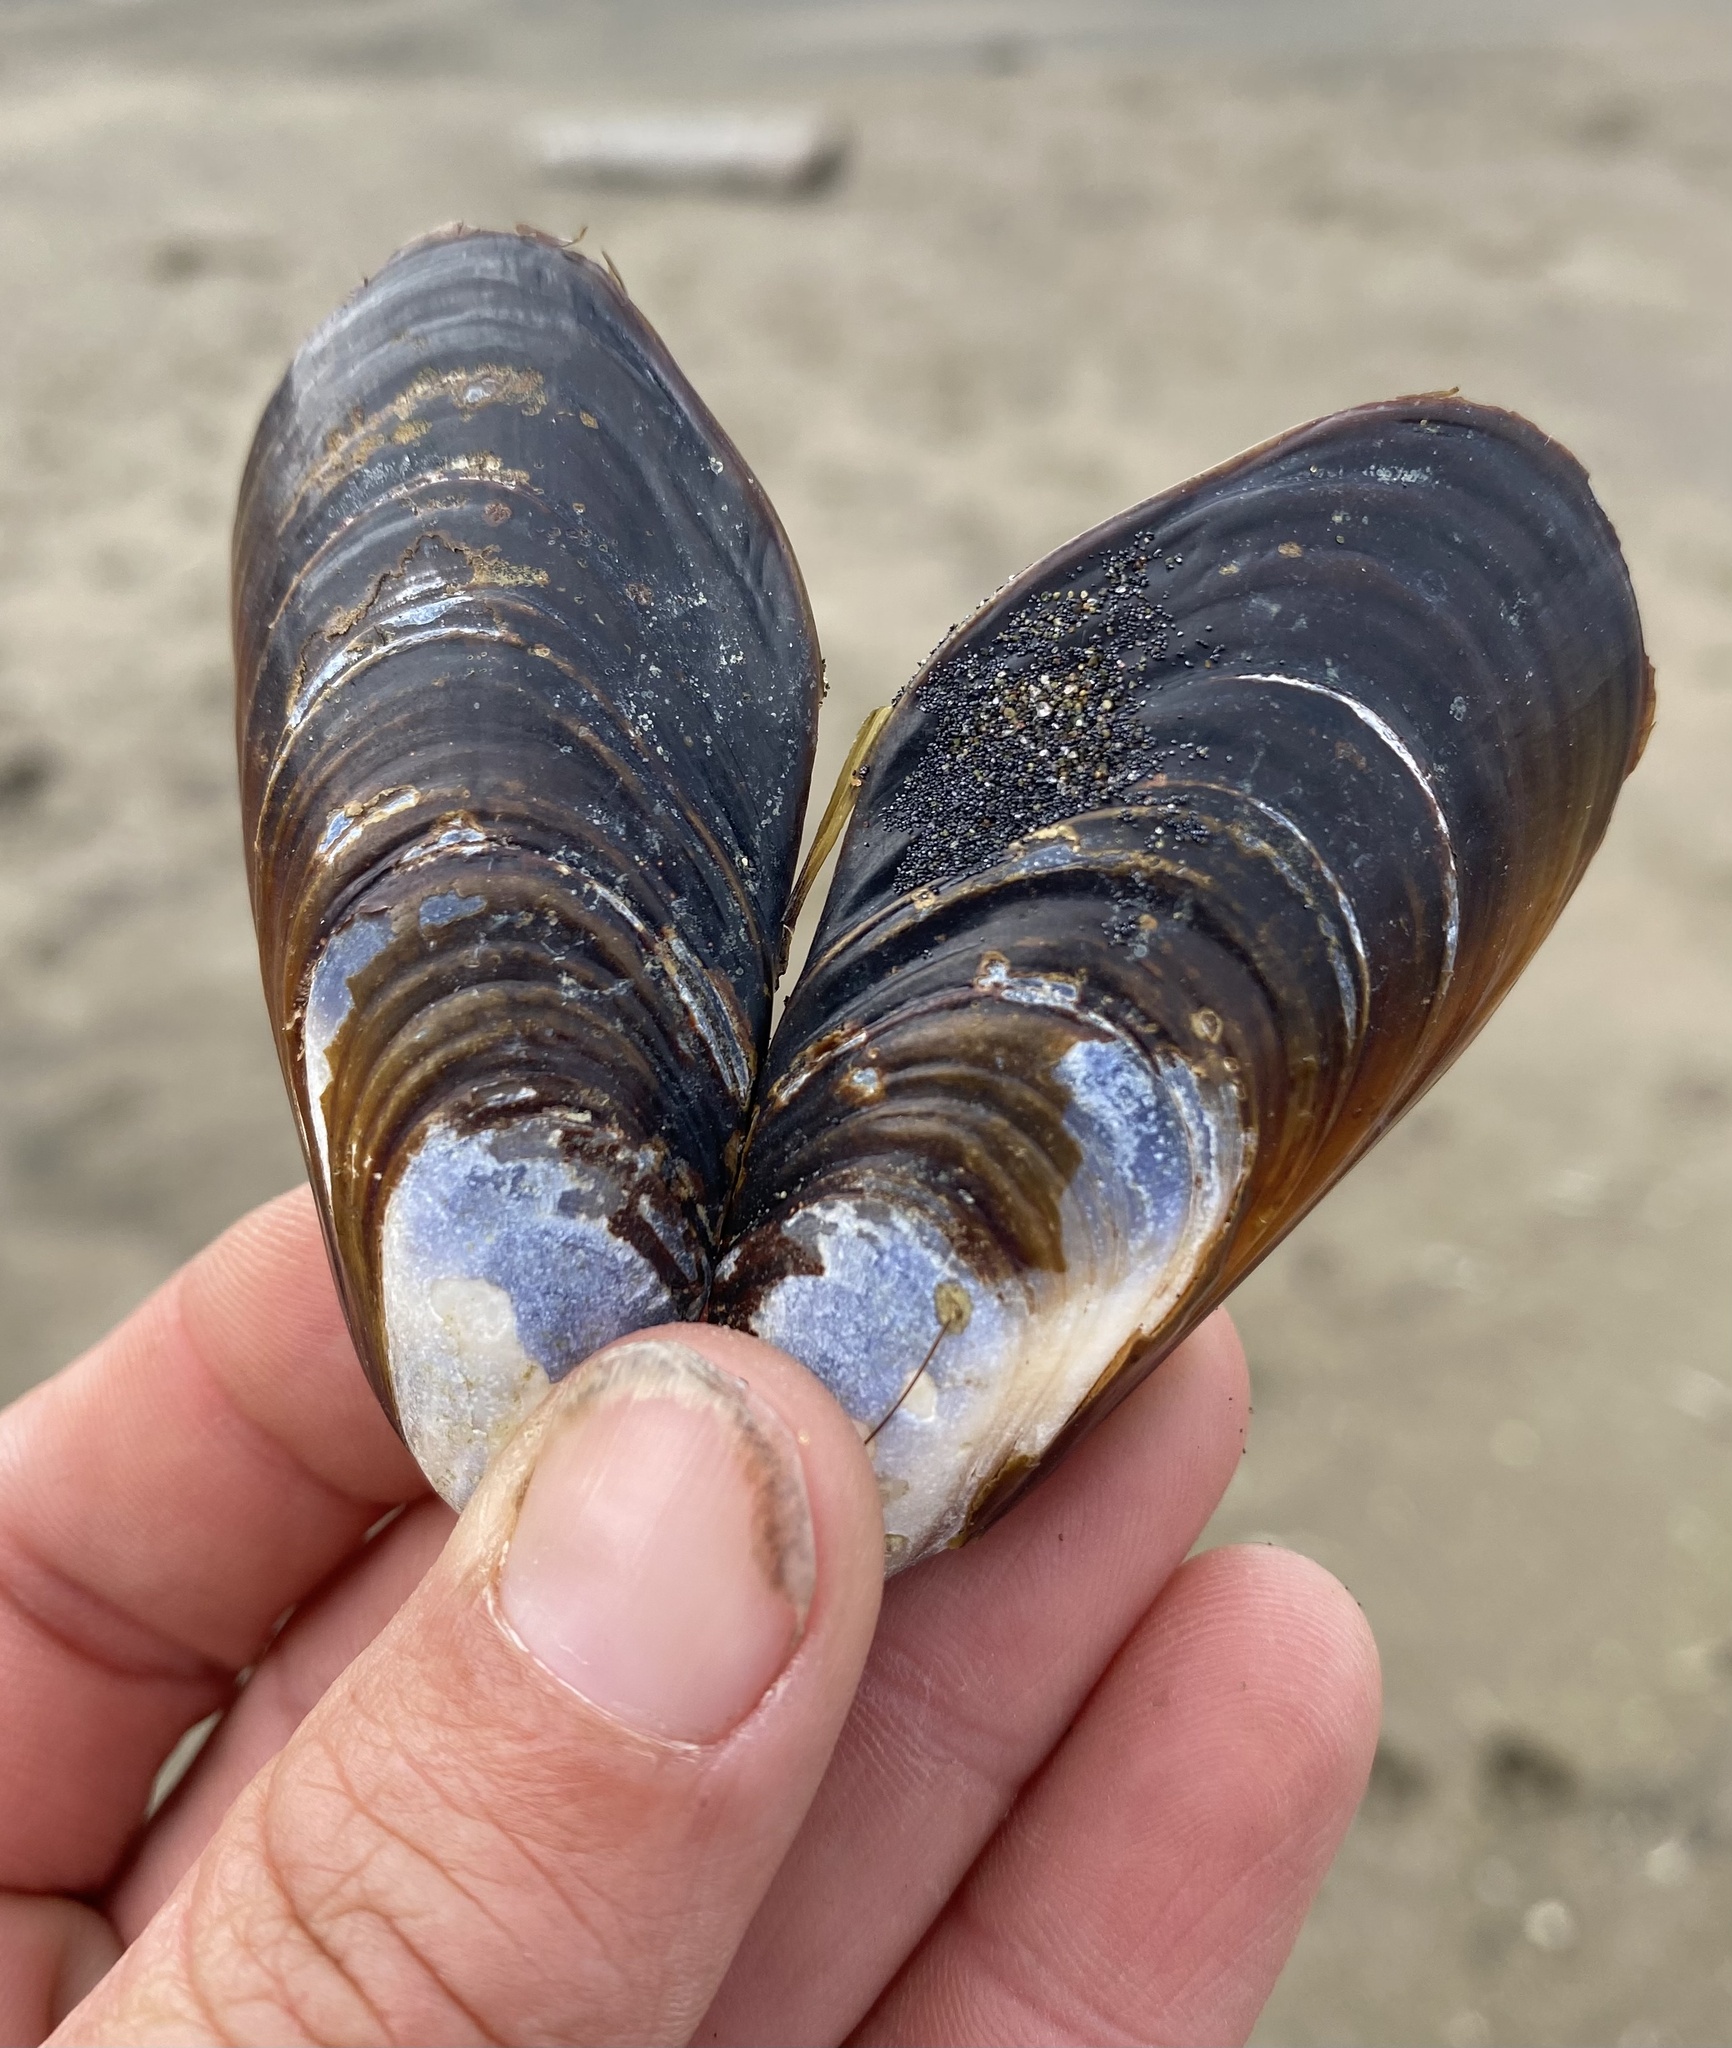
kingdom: Animalia
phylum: Mollusca
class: Bivalvia
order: Mytilida
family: Mytilidae
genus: Mytilus
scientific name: Mytilus californianus
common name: California mussel
